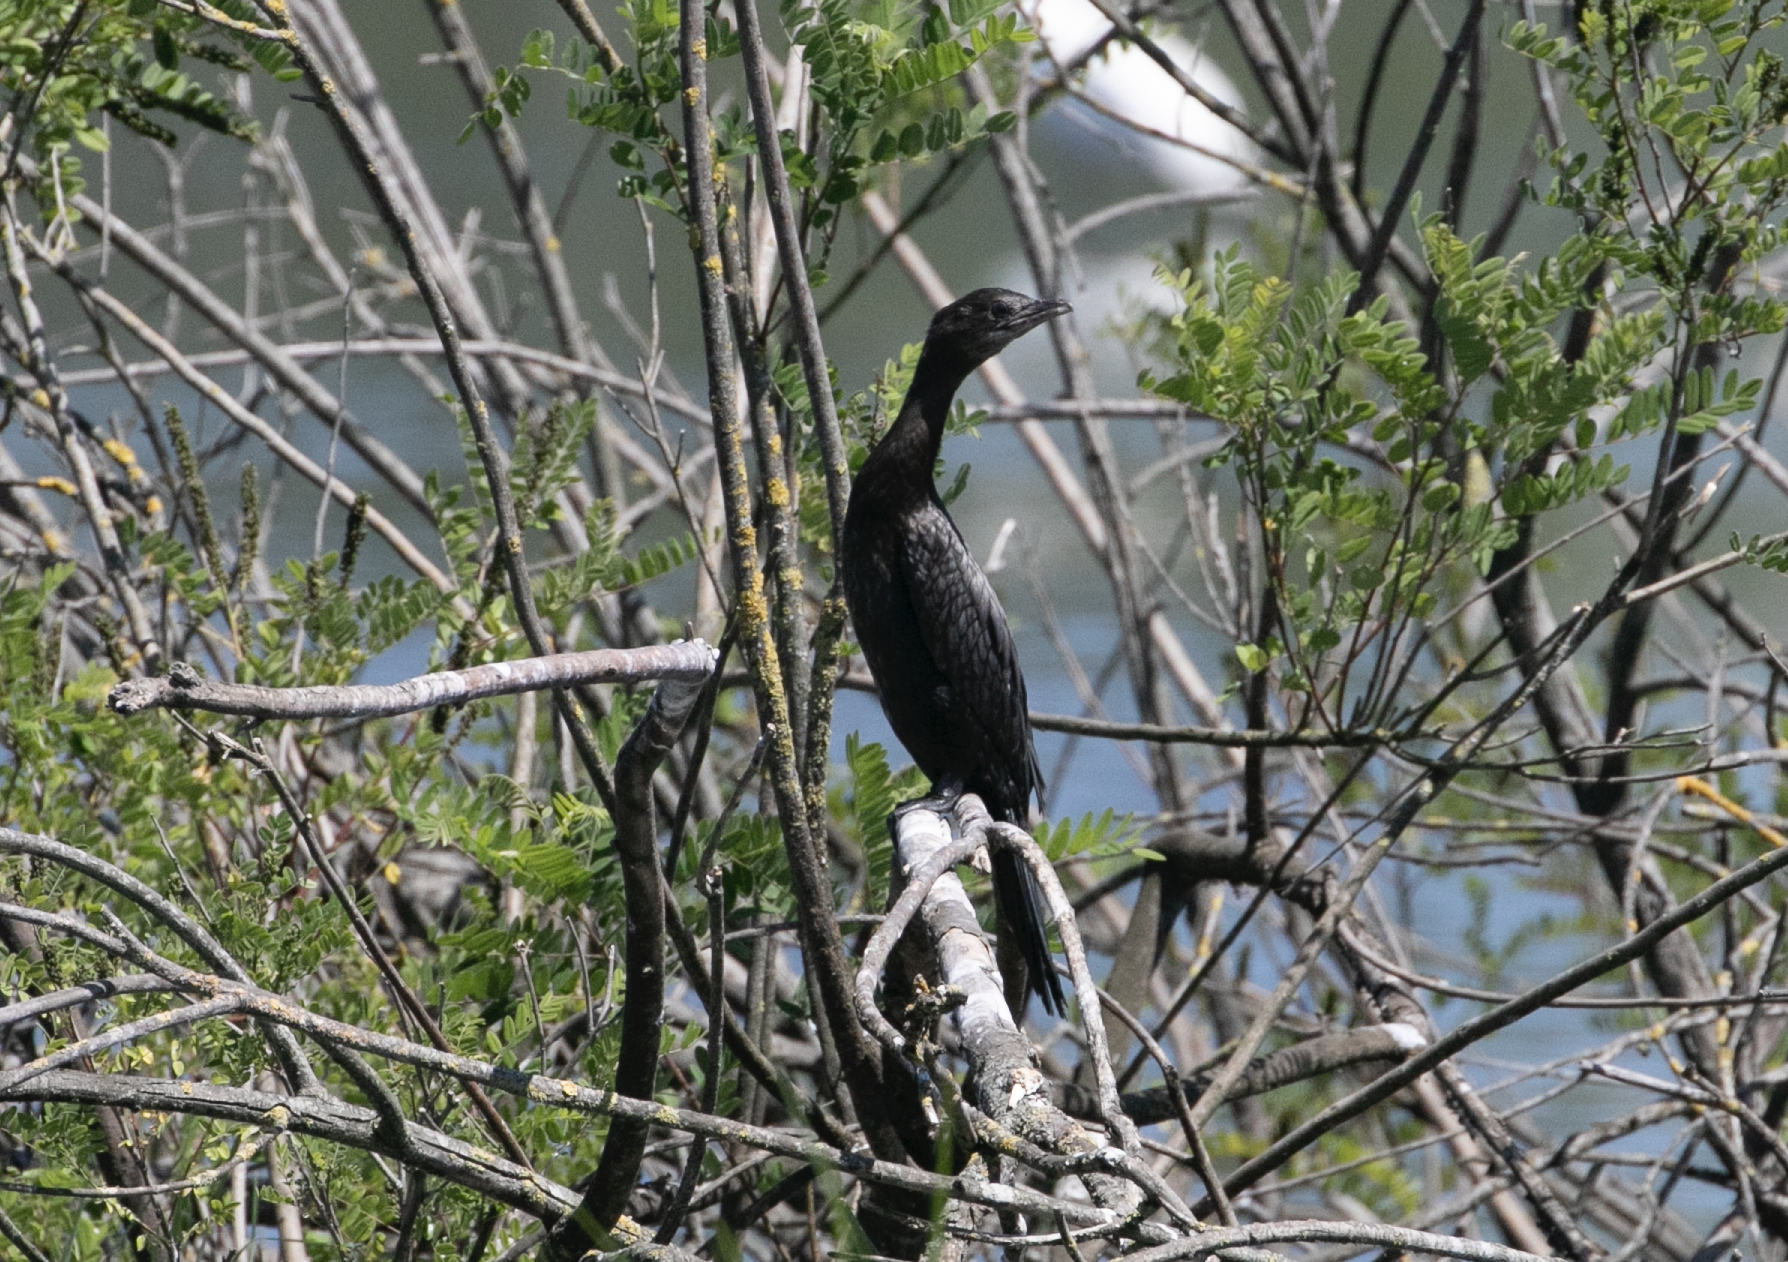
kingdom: Animalia
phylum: Chordata
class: Aves
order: Suliformes
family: Phalacrocoracidae
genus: Microcarbo
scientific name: Microcarbo pygmaeus
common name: Pygmy cormorant
